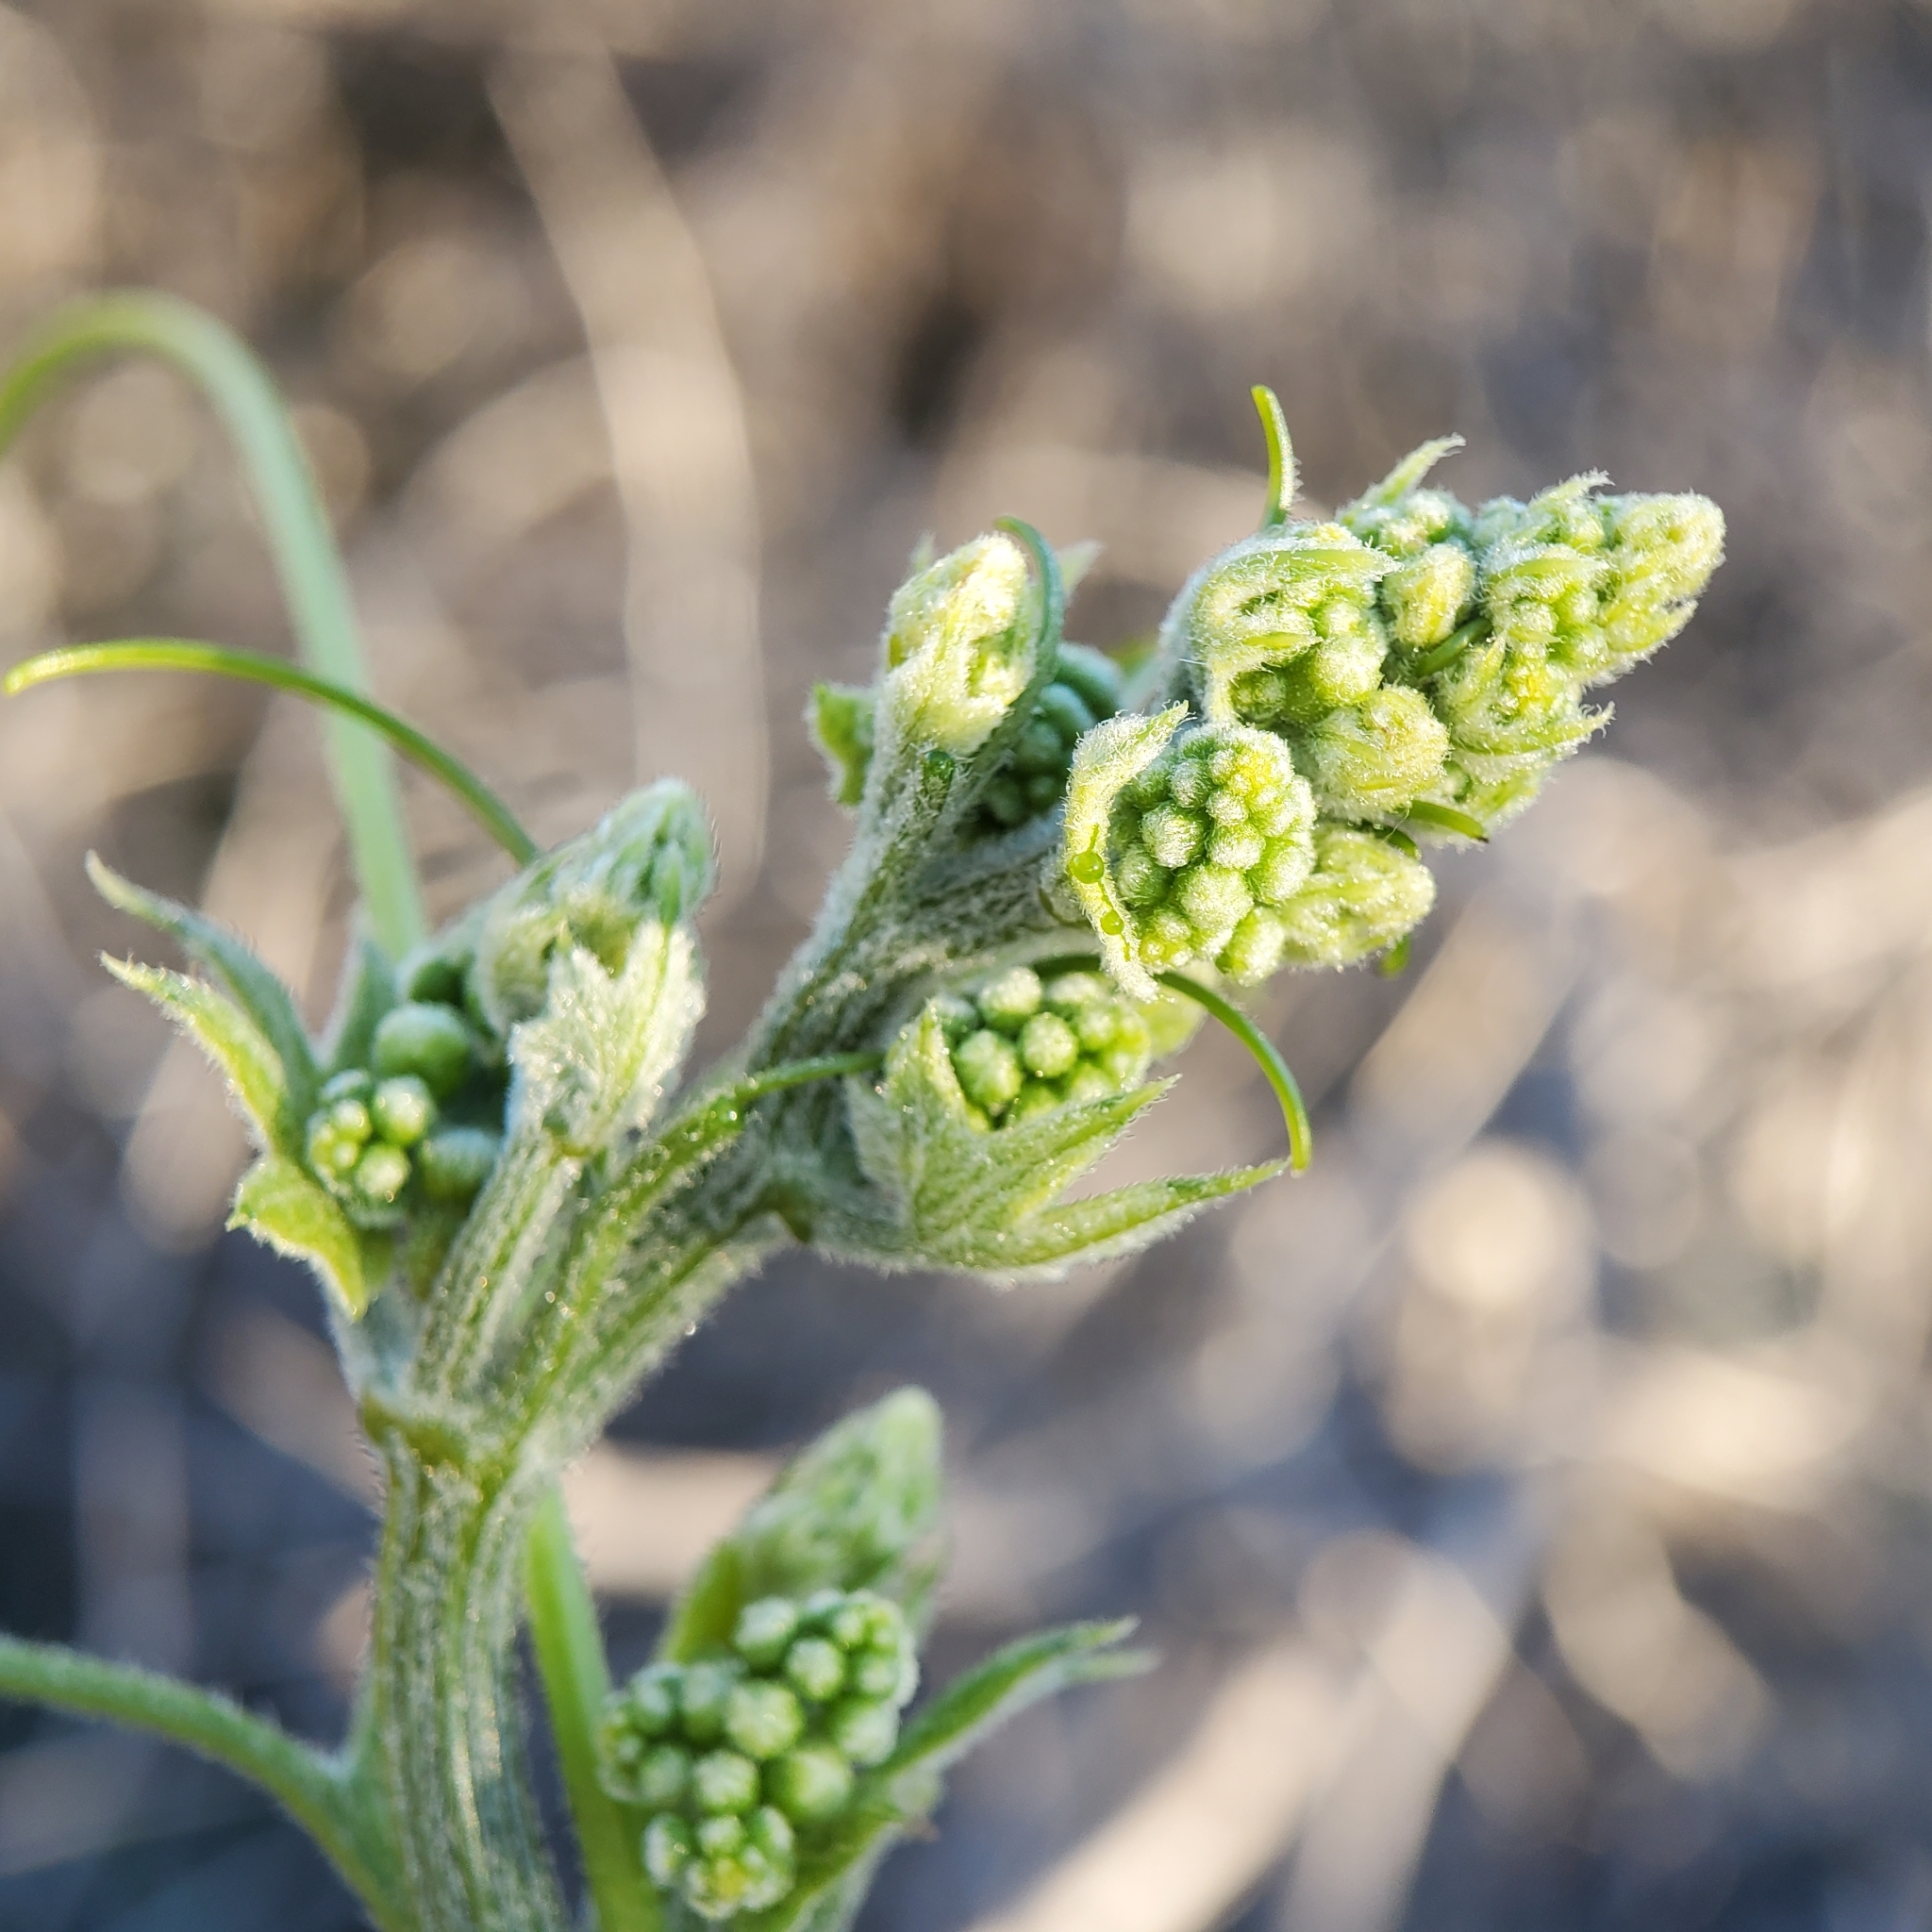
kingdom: Plantae
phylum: Tracheophyta
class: Magnoliopsida
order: Cucurbitales
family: Cucurbitaceae
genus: Marah
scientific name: Marah macrocarpa
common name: Cucamonga manroot
